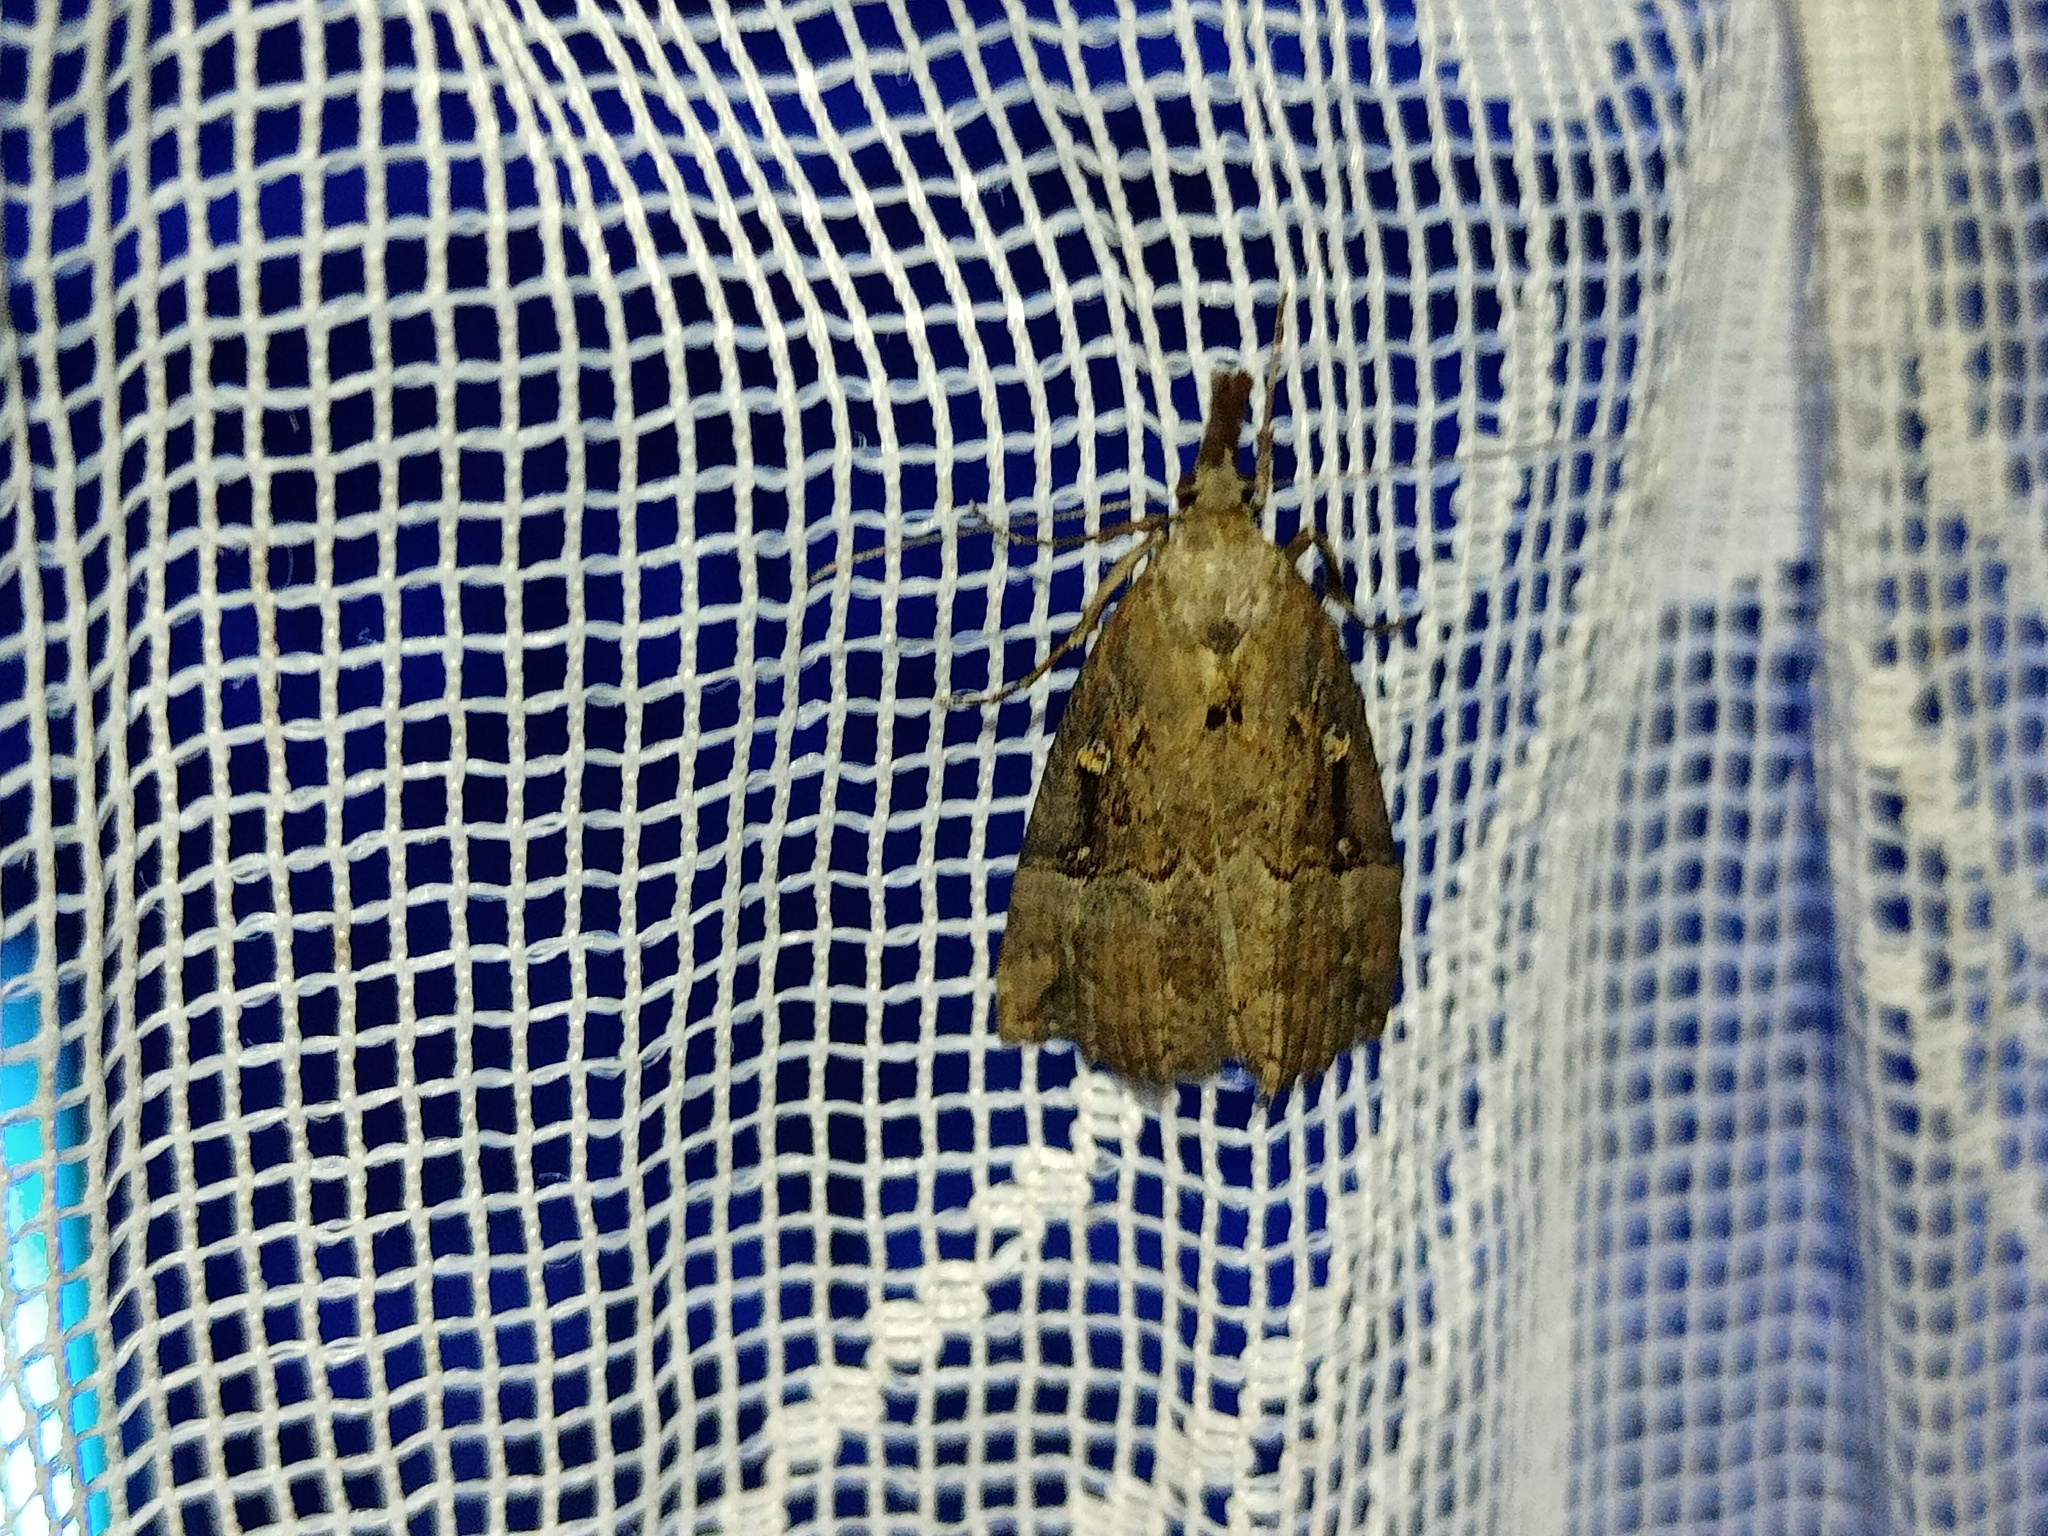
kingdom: Animalia
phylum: Arthropoda
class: Insecta
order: Lepidoptera
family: Erebidae
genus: Hypena
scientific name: Hypena rostralis
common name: Buttoned snout
